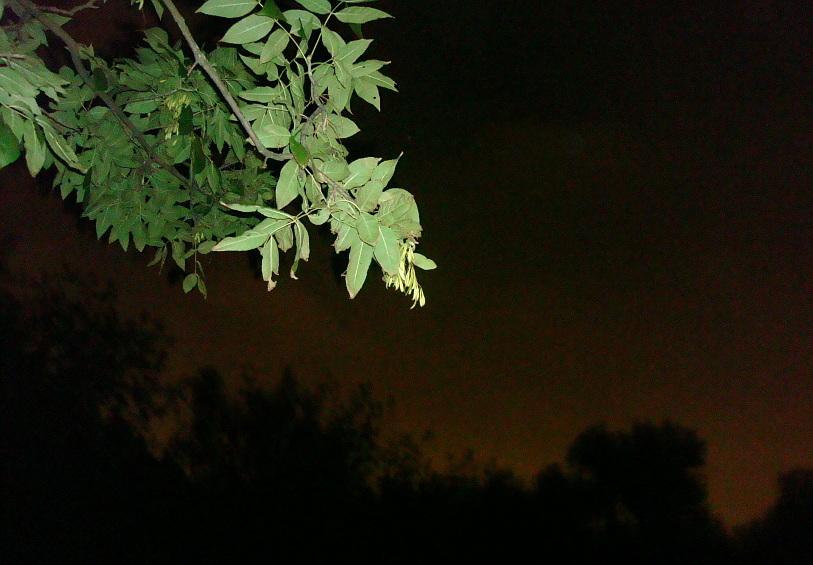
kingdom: Plantae
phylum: Tracheophyta
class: Magnoliopsida
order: Lamiales
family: Oleaceae
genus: Fraxinus
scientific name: Fraxinus pennsylvanica
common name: Green ash
